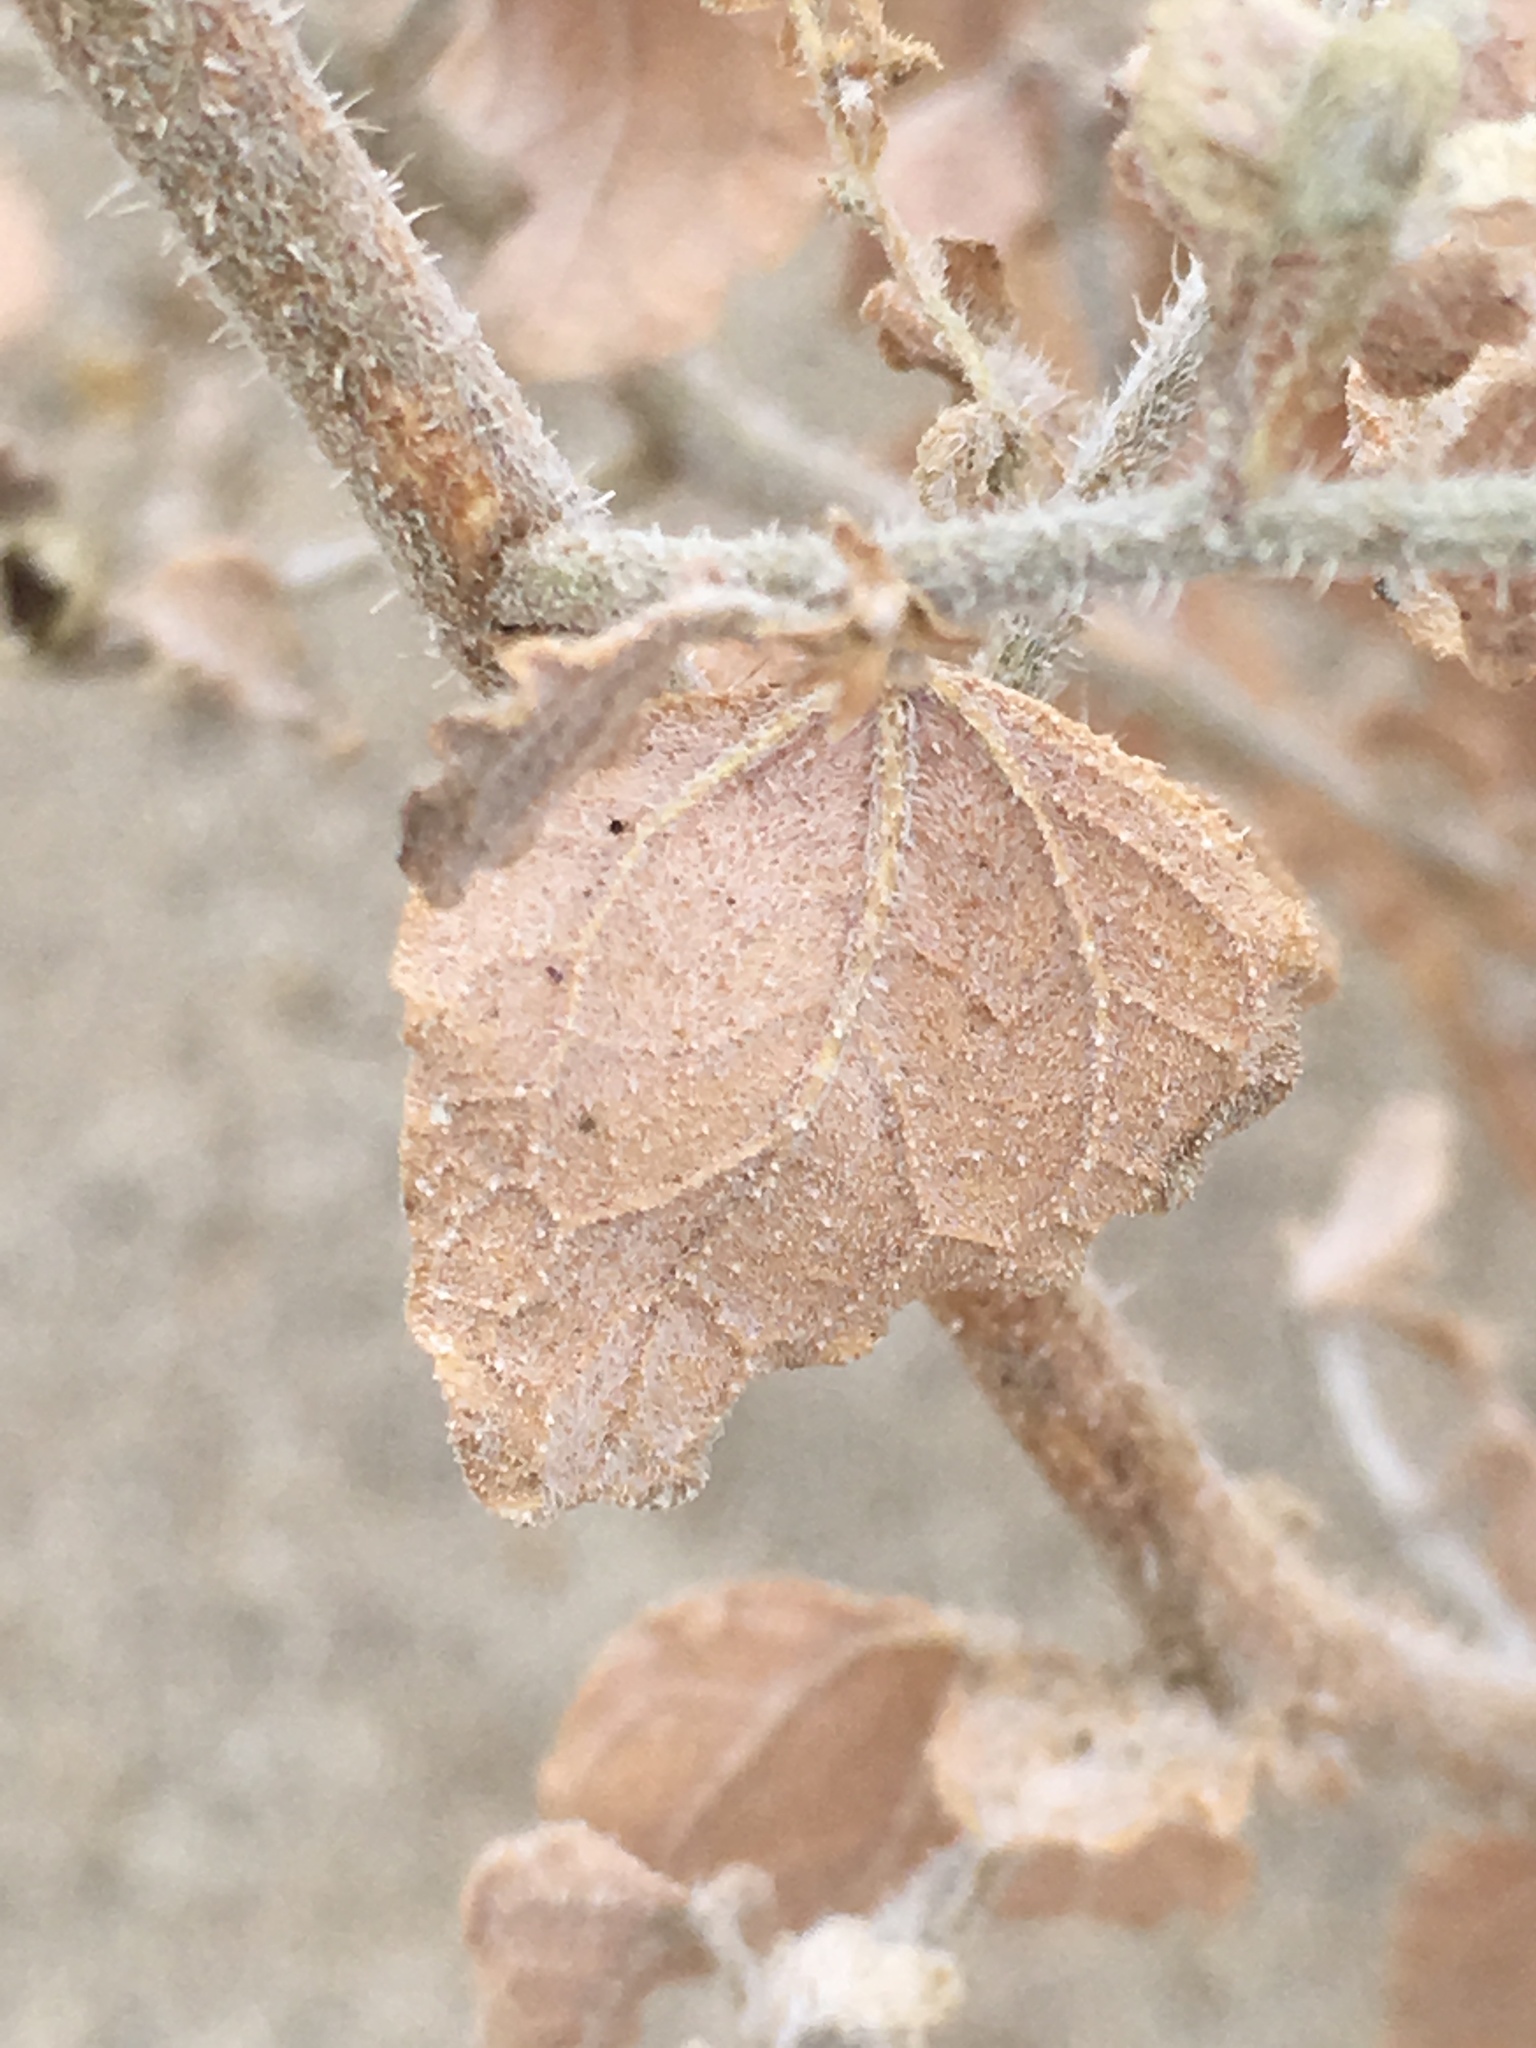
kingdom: Plantae
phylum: Tracheophyta
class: Magnoliopsida
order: Asterales
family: Asteraceae
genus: Dicoria
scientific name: Dicoria canescens
